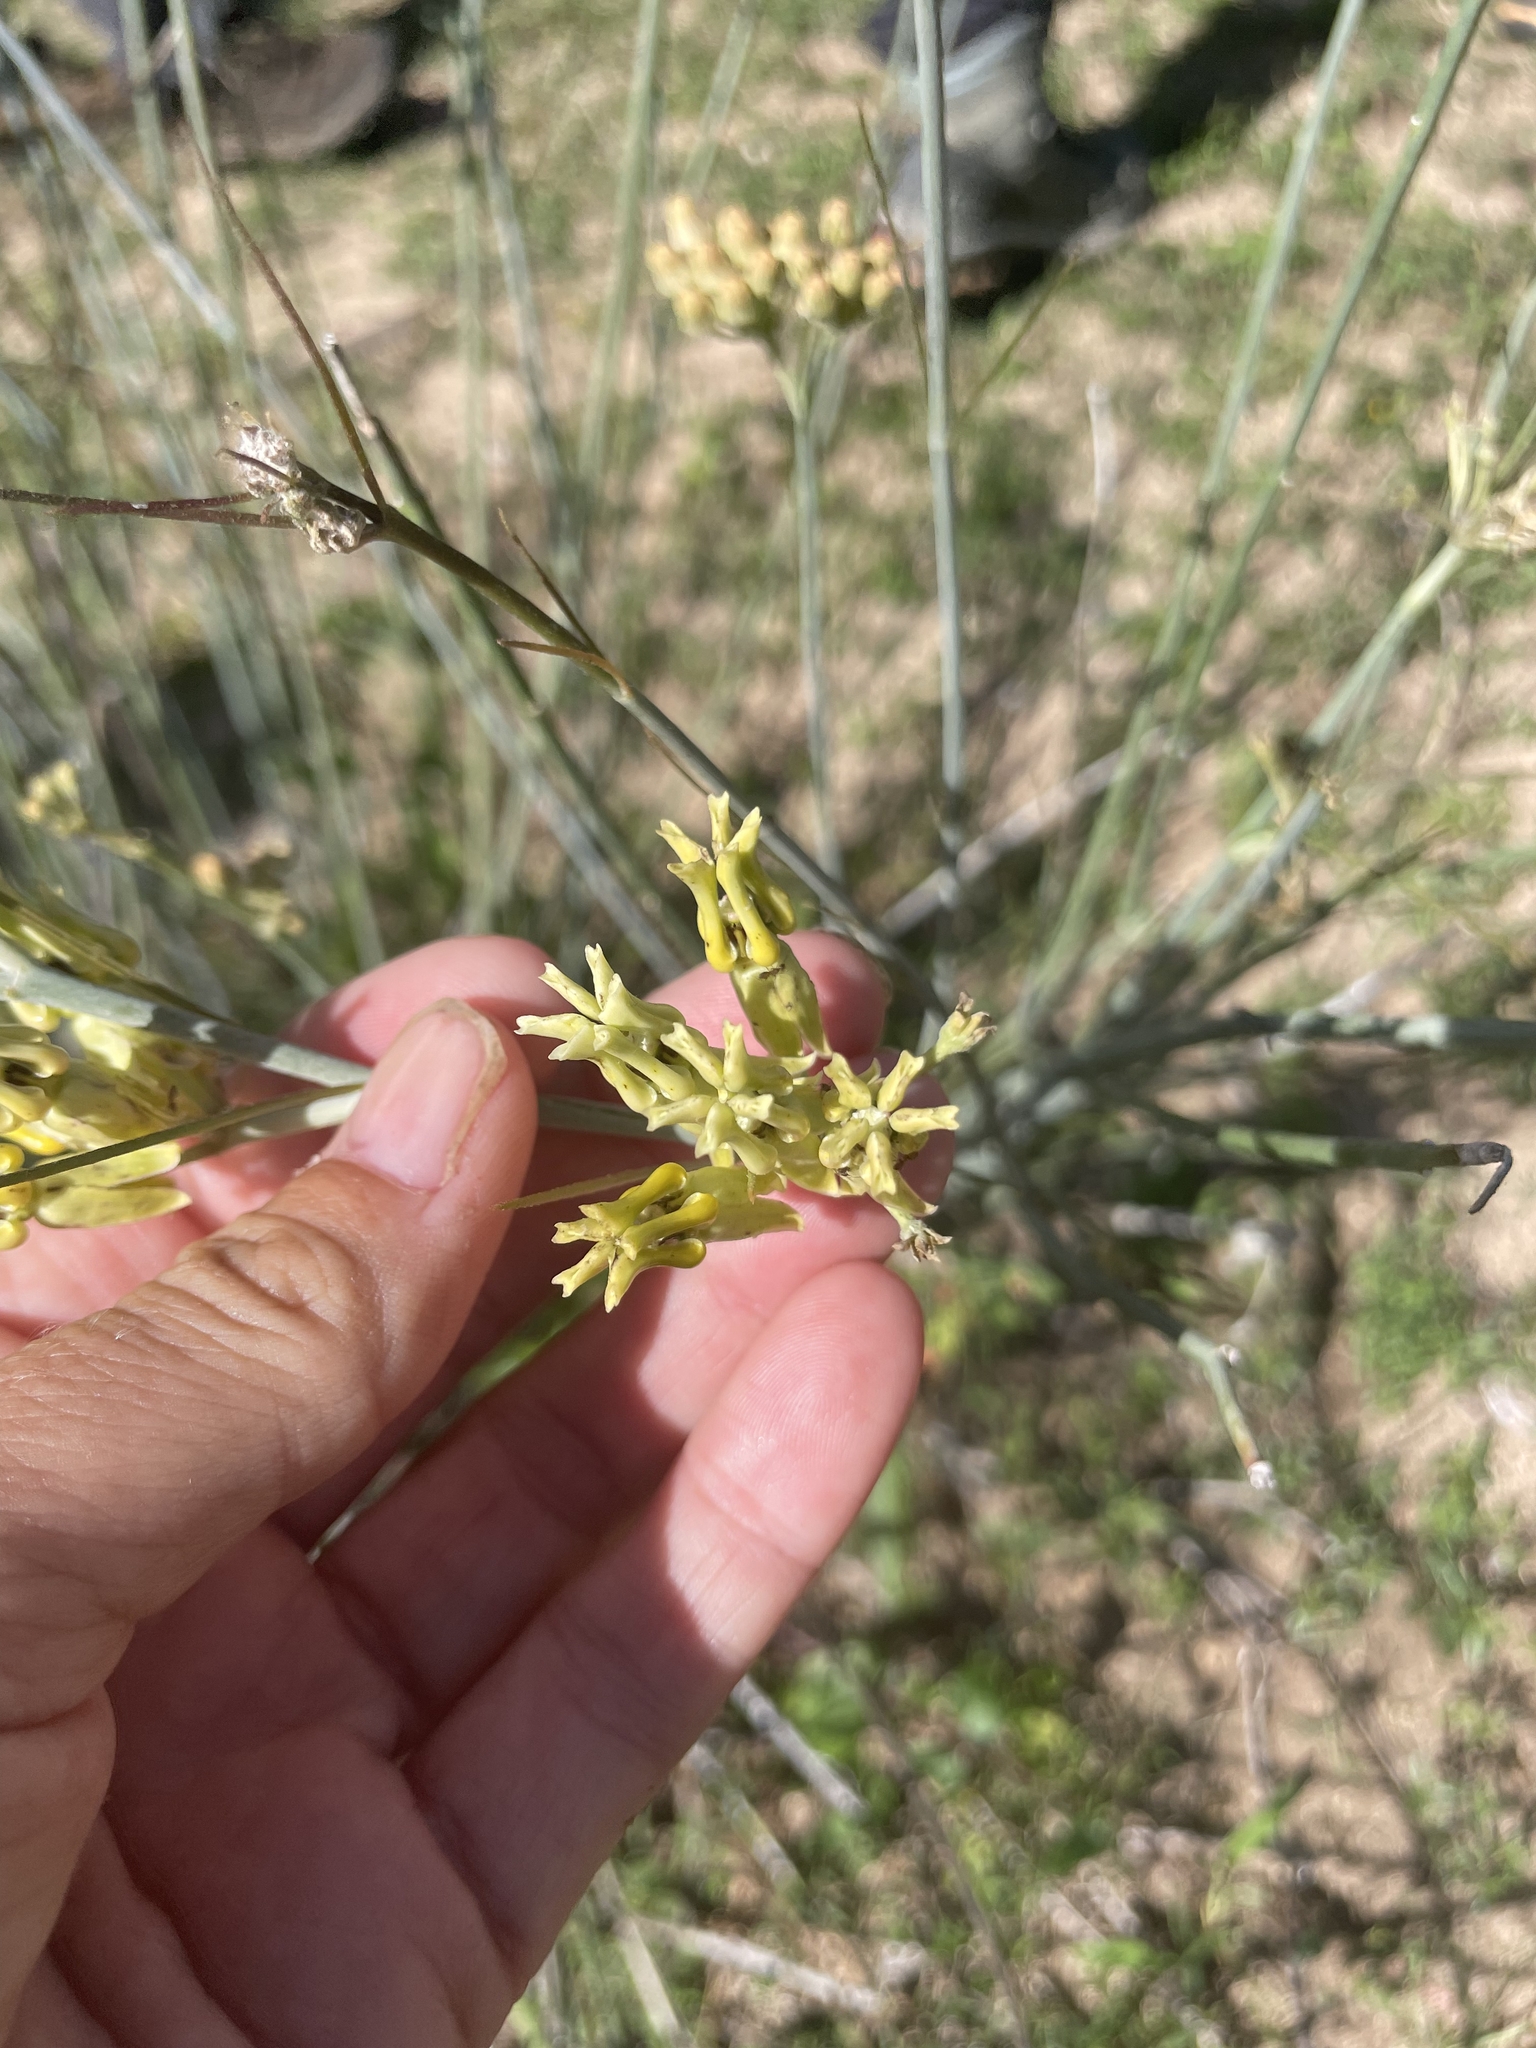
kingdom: Plantae
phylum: Tracheophyta
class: Magnoliopsida
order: Gentianales
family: Apocynaceae
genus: Asclepias
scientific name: Asclepias subulata
